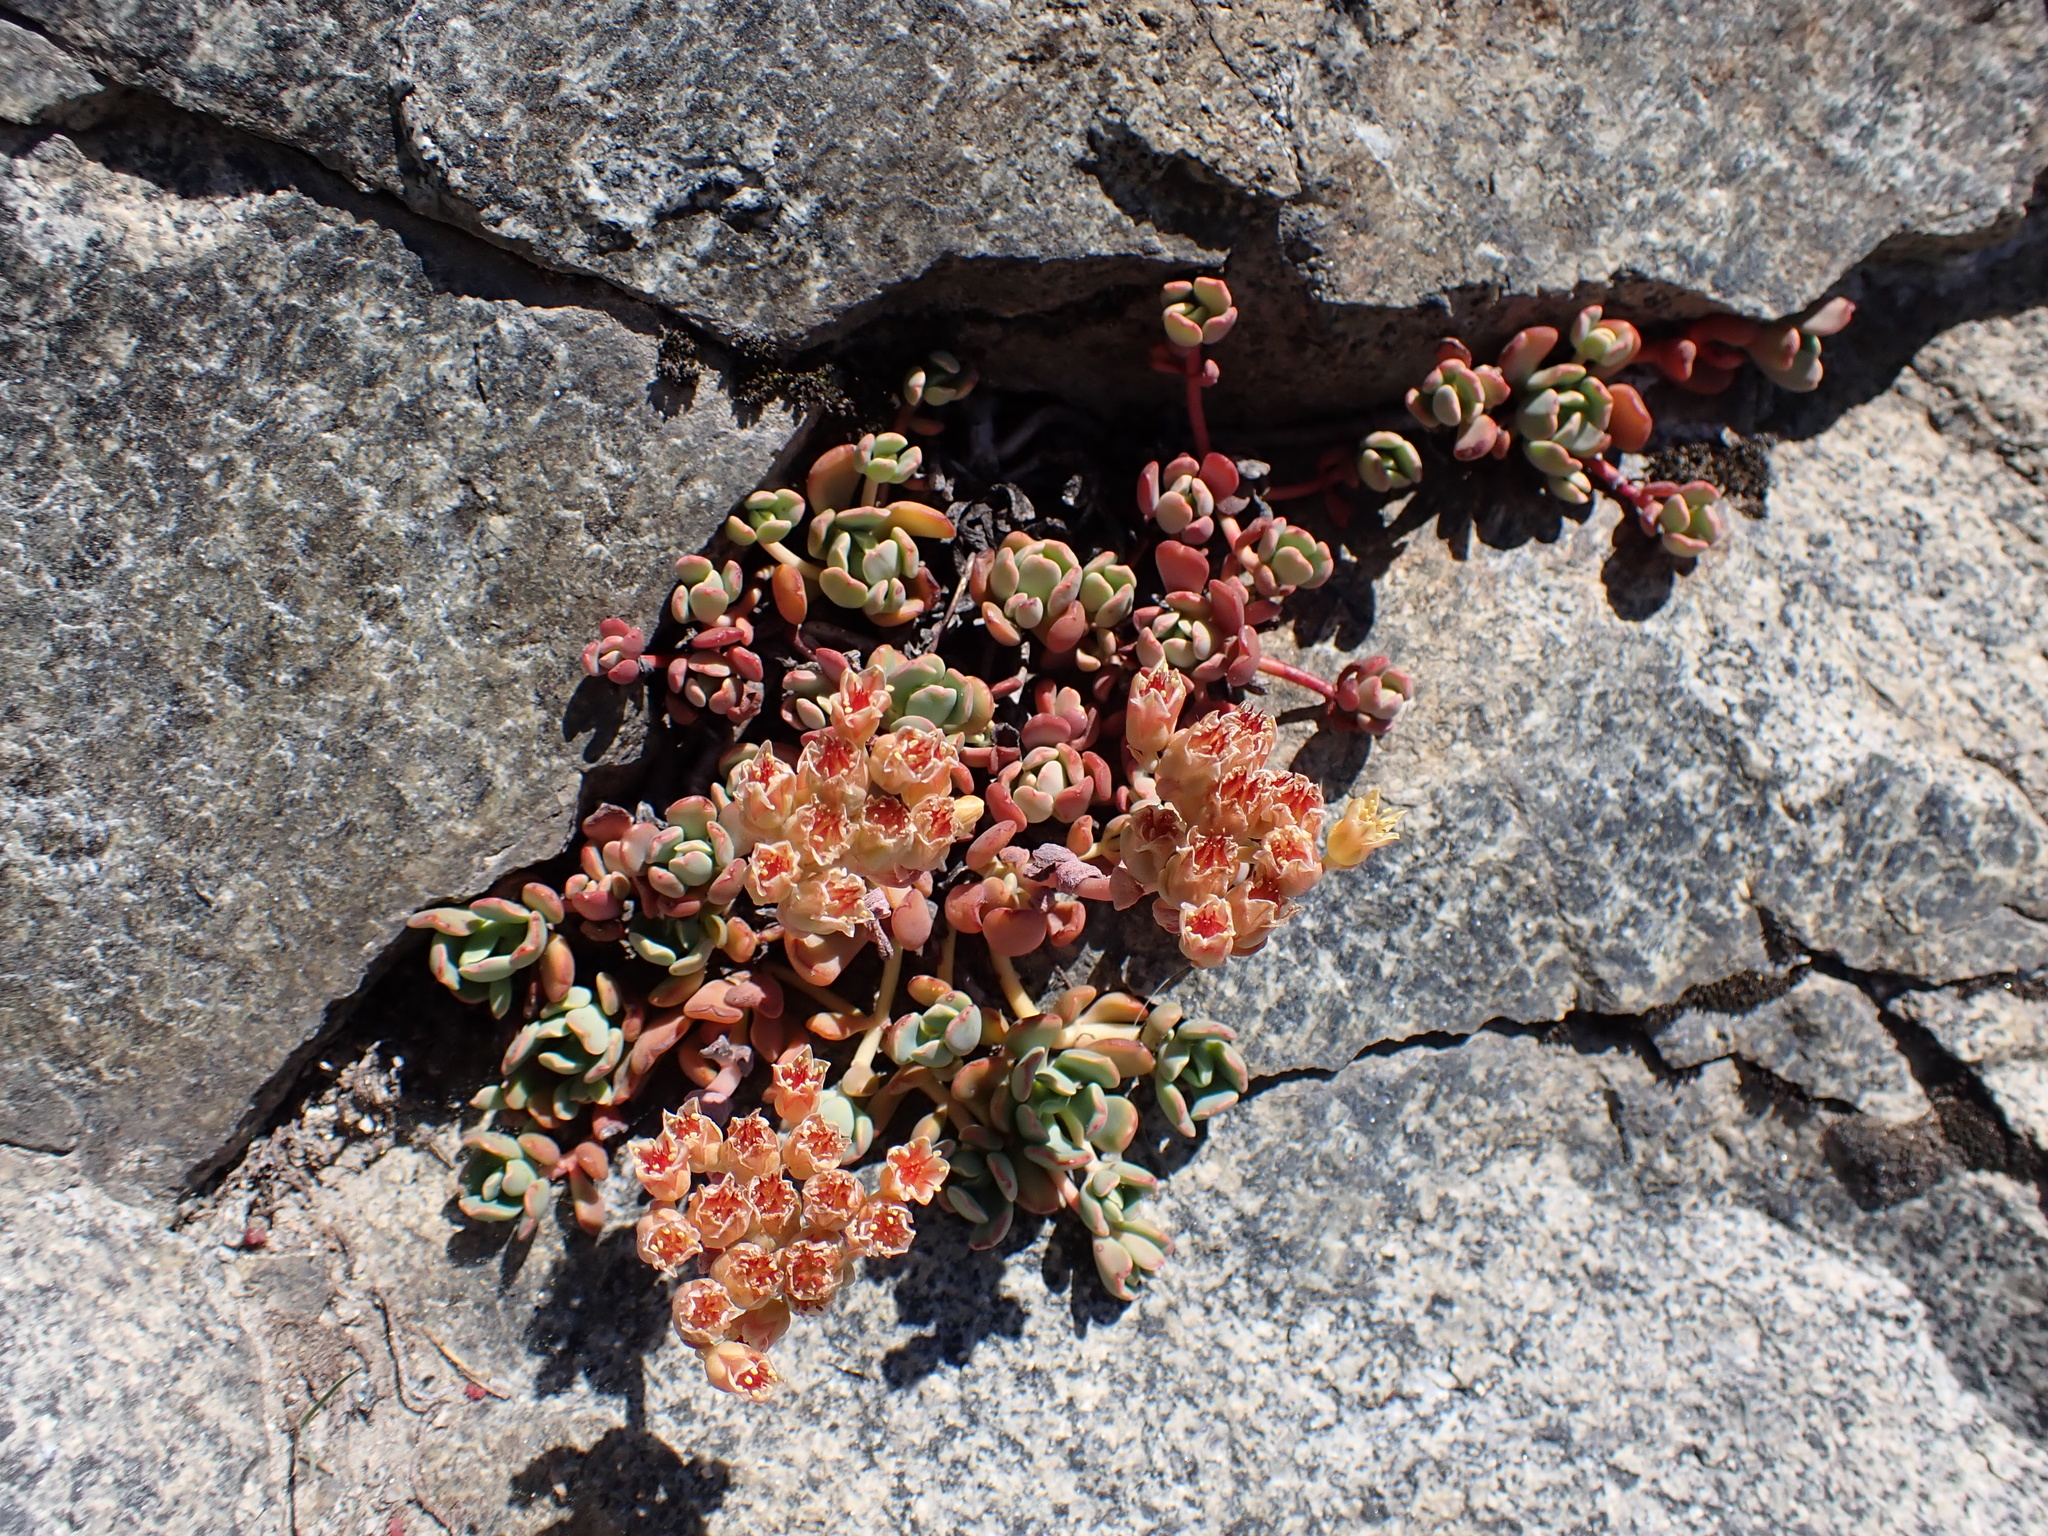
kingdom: Plantae
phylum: Tracheophyta
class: Magnoliopsida
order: Saxifragales
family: Crassulaceae
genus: Sedum
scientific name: Sedum obtusatum
